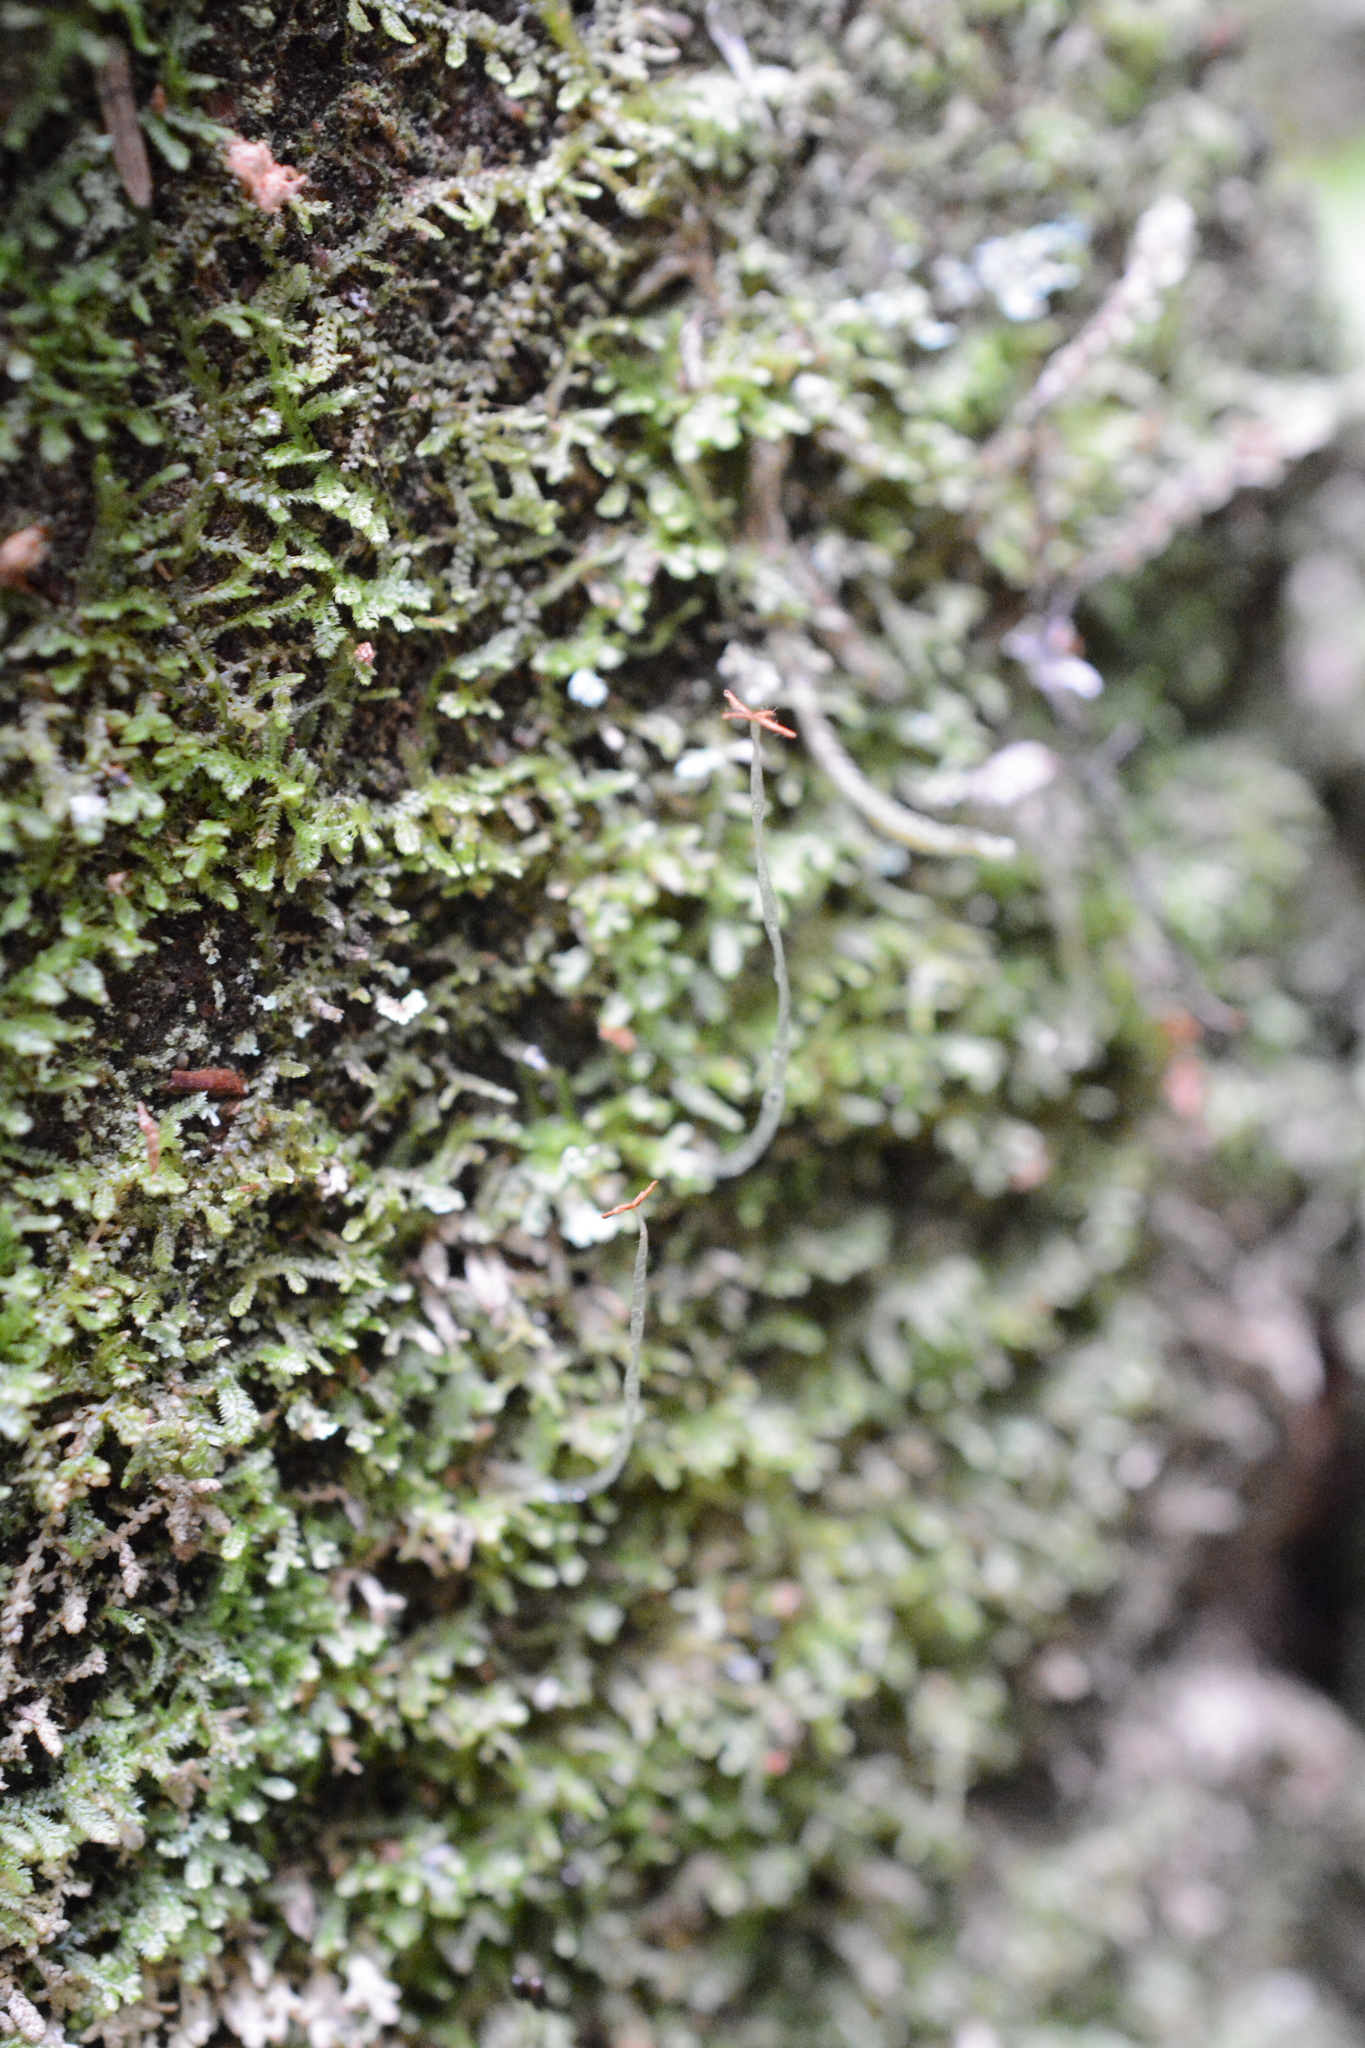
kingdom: Plantae
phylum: Marchantiophyta
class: Jungermanniopsida
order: Jungermanniales
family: Lepidoziaceae
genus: Lepidozia
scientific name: Lepidozia reptans
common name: Creeping fingerwort
